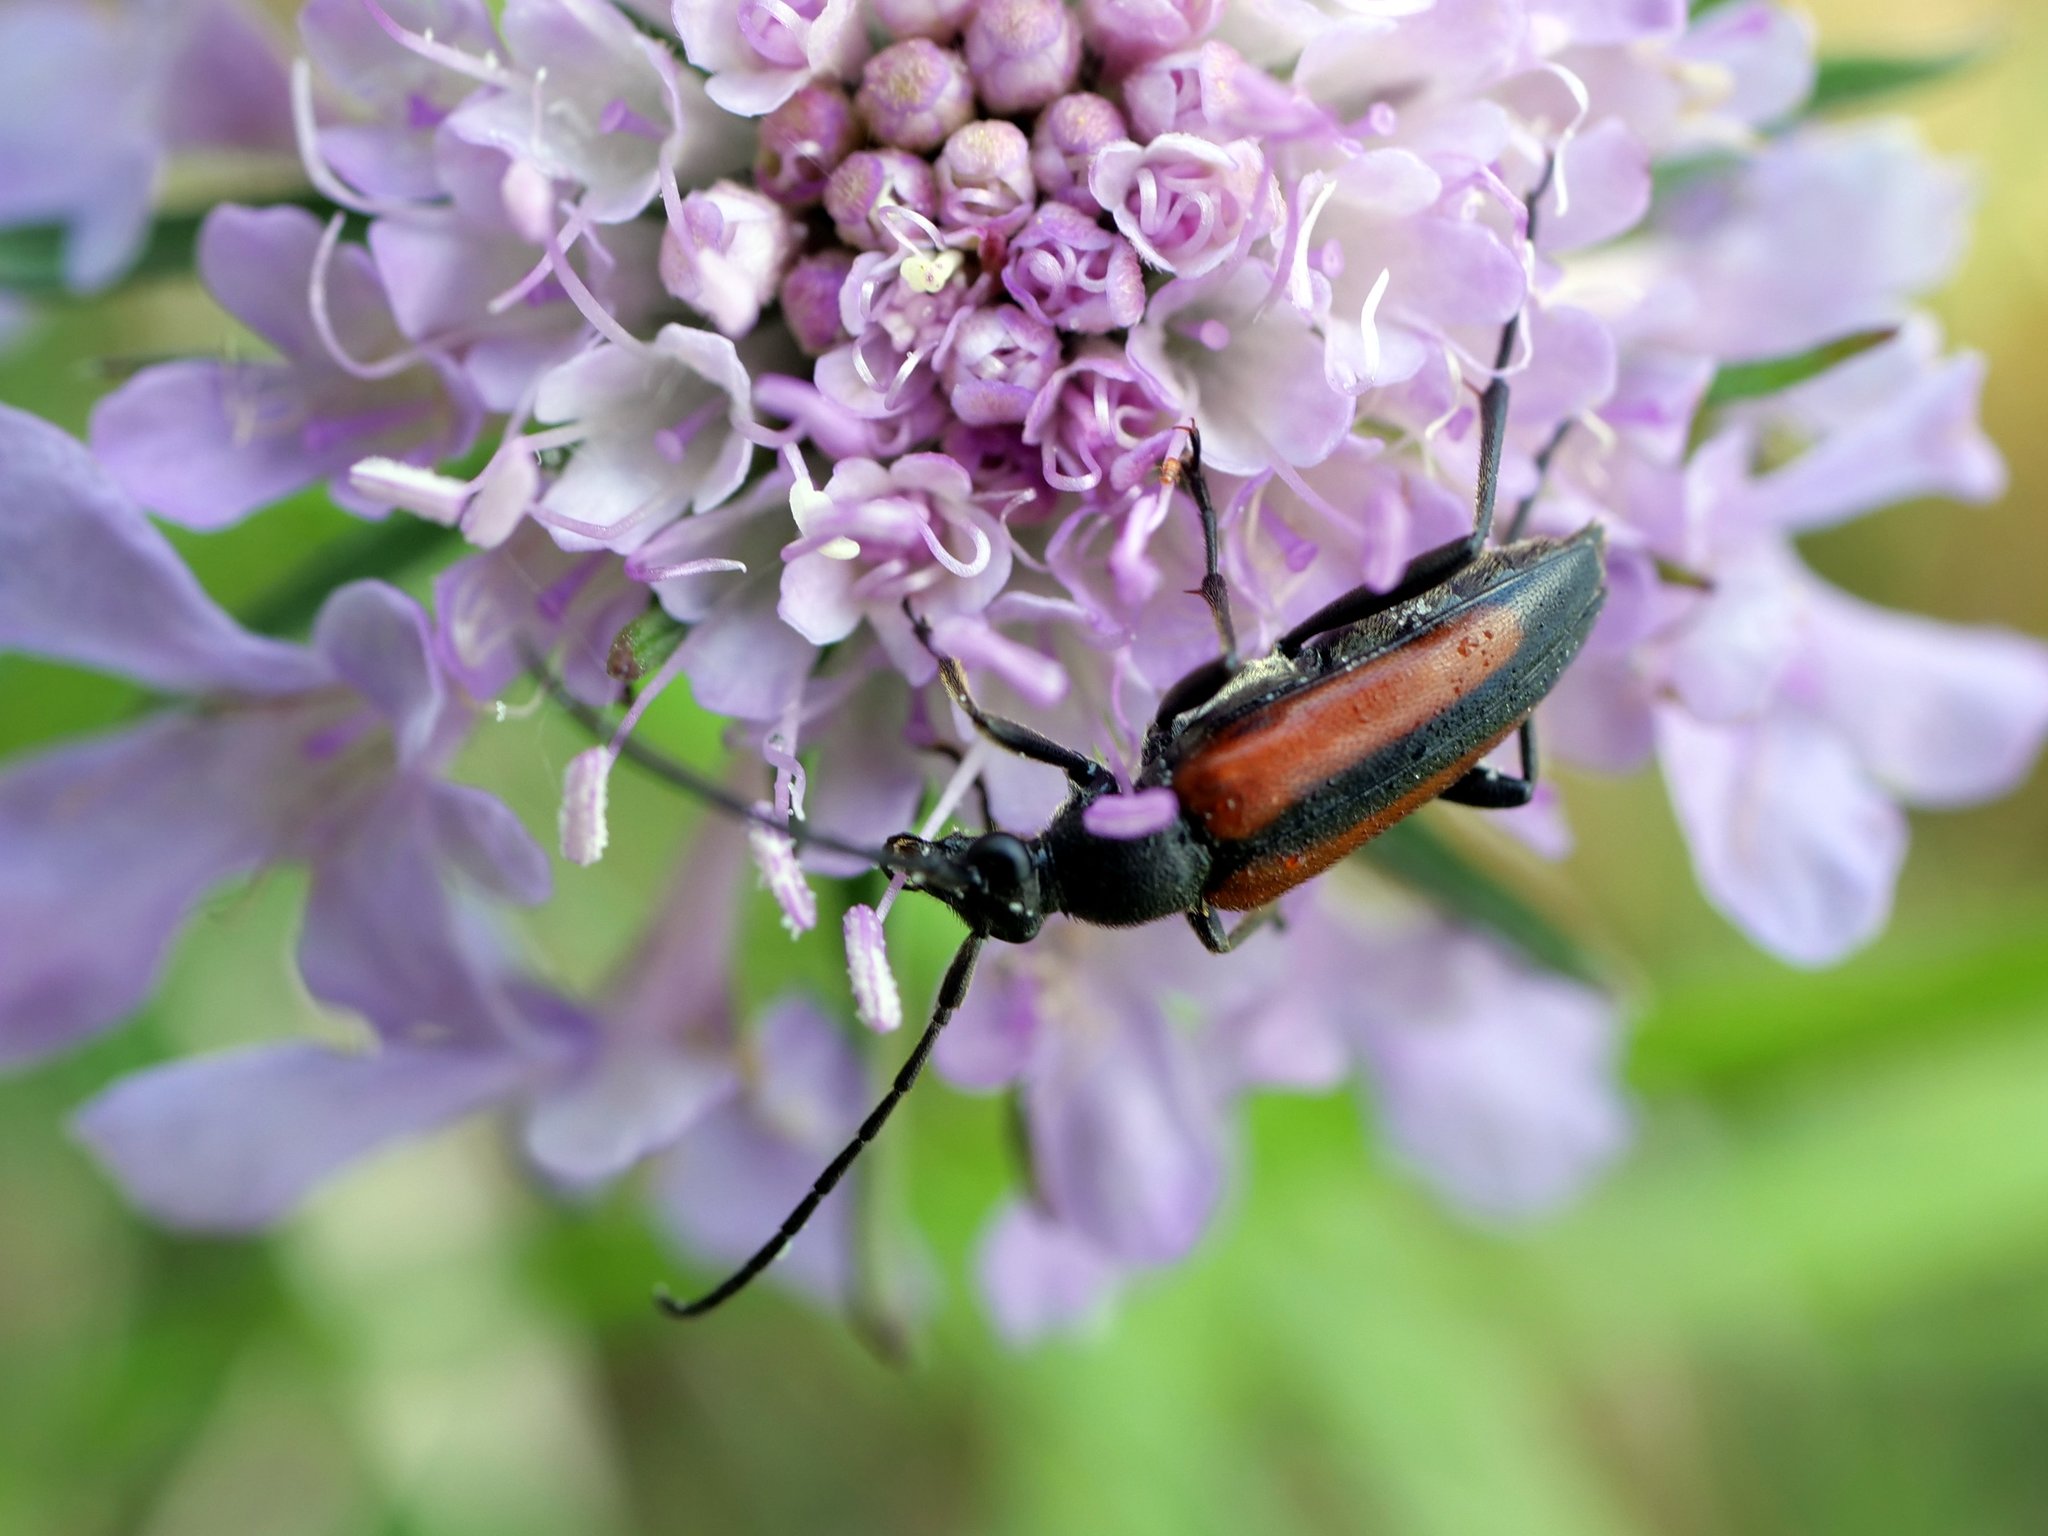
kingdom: Animalia
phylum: Arthropoda
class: Insecta
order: Coleoptera
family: Cerambycidae
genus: Stenurella
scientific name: Stenurella melanura
